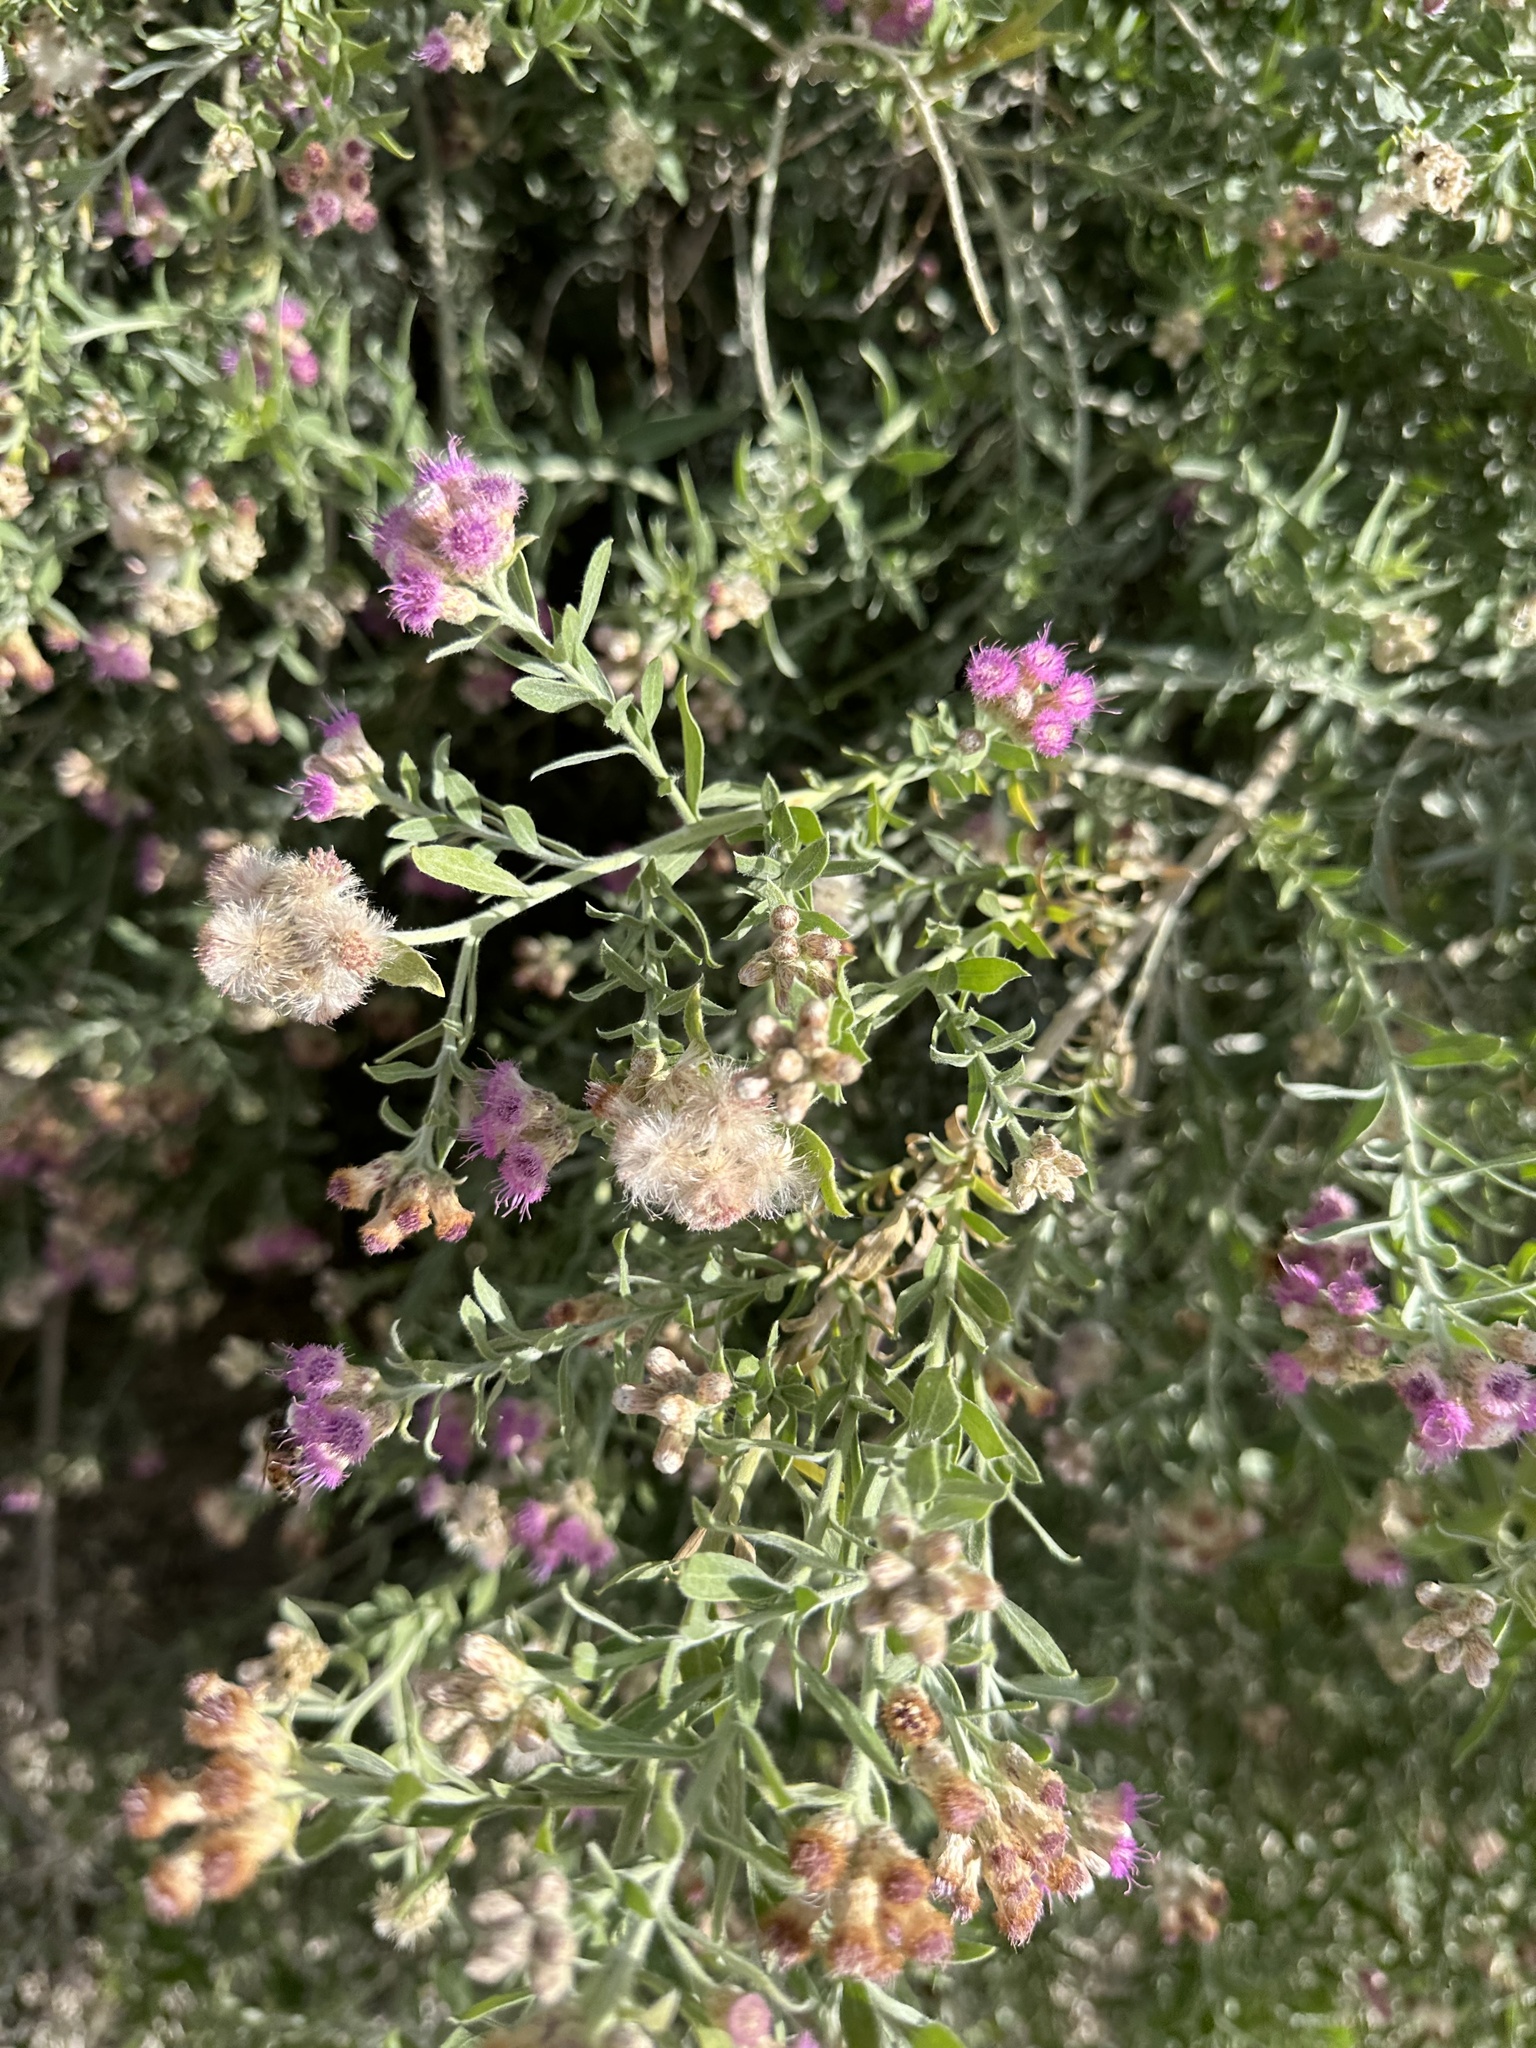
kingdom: Plantae
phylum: Tracheophyta
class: Magnoliopsida
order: Asterales
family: Asteraceae
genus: Pluchea
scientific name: Pluchea sericea
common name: Arrow-weed
